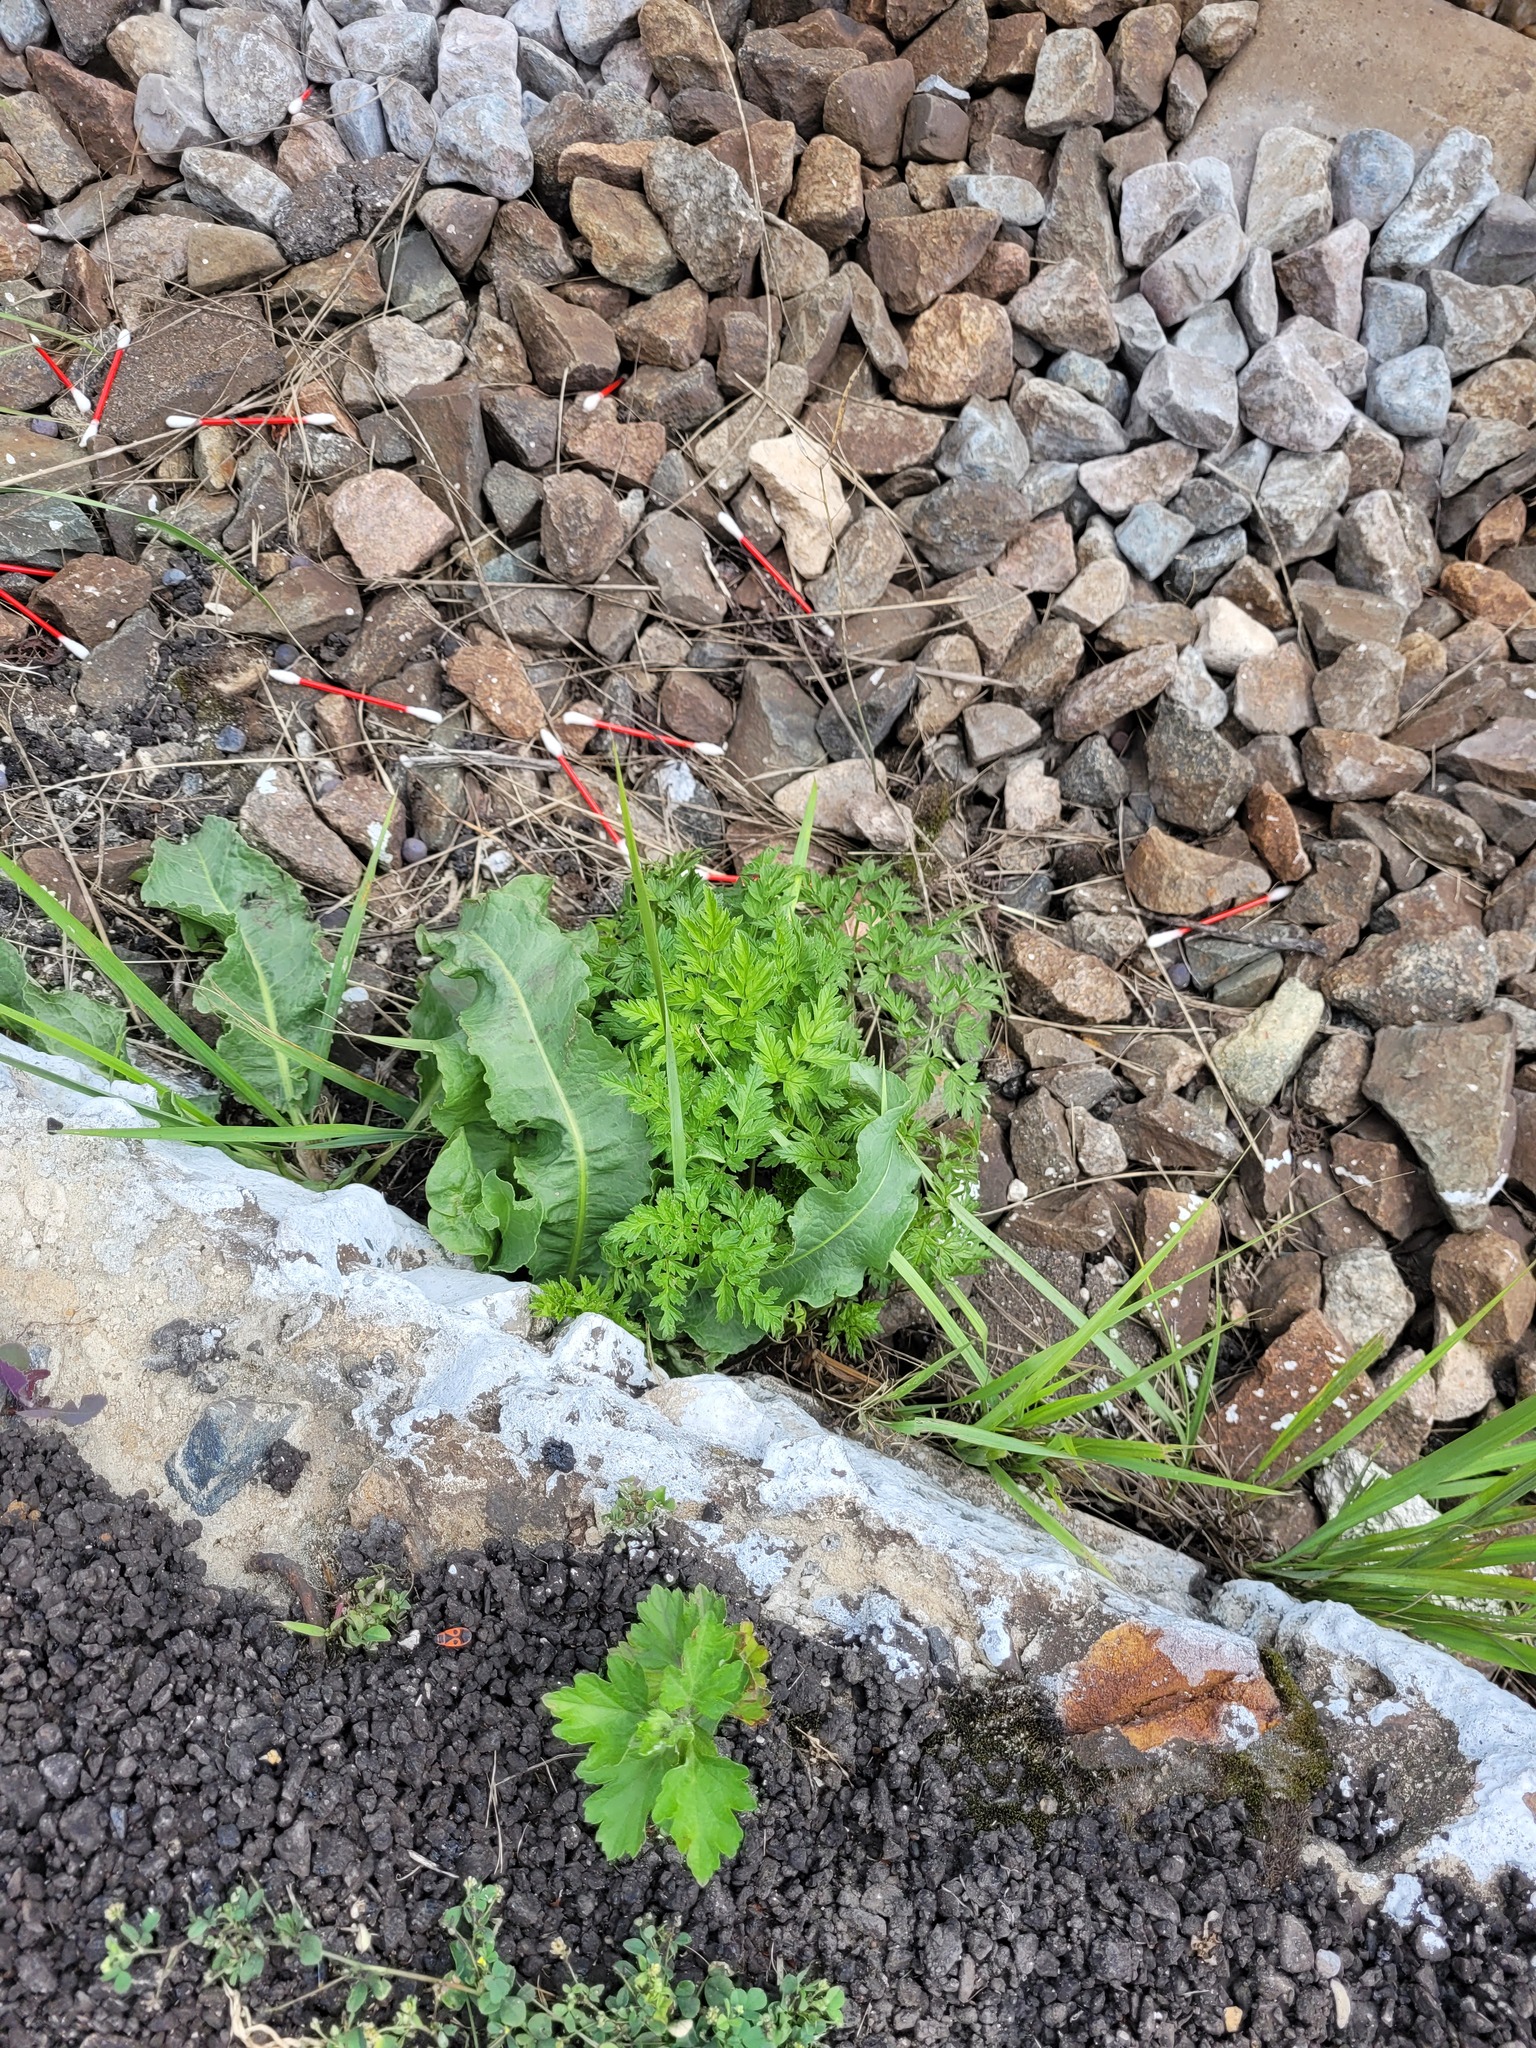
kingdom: Plantae
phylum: Tracheophyta
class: Magnoliopsida
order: Apiales
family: Apiaceae
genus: Anthriscus
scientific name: Anthriscus sylvestris
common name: Cow parsley
